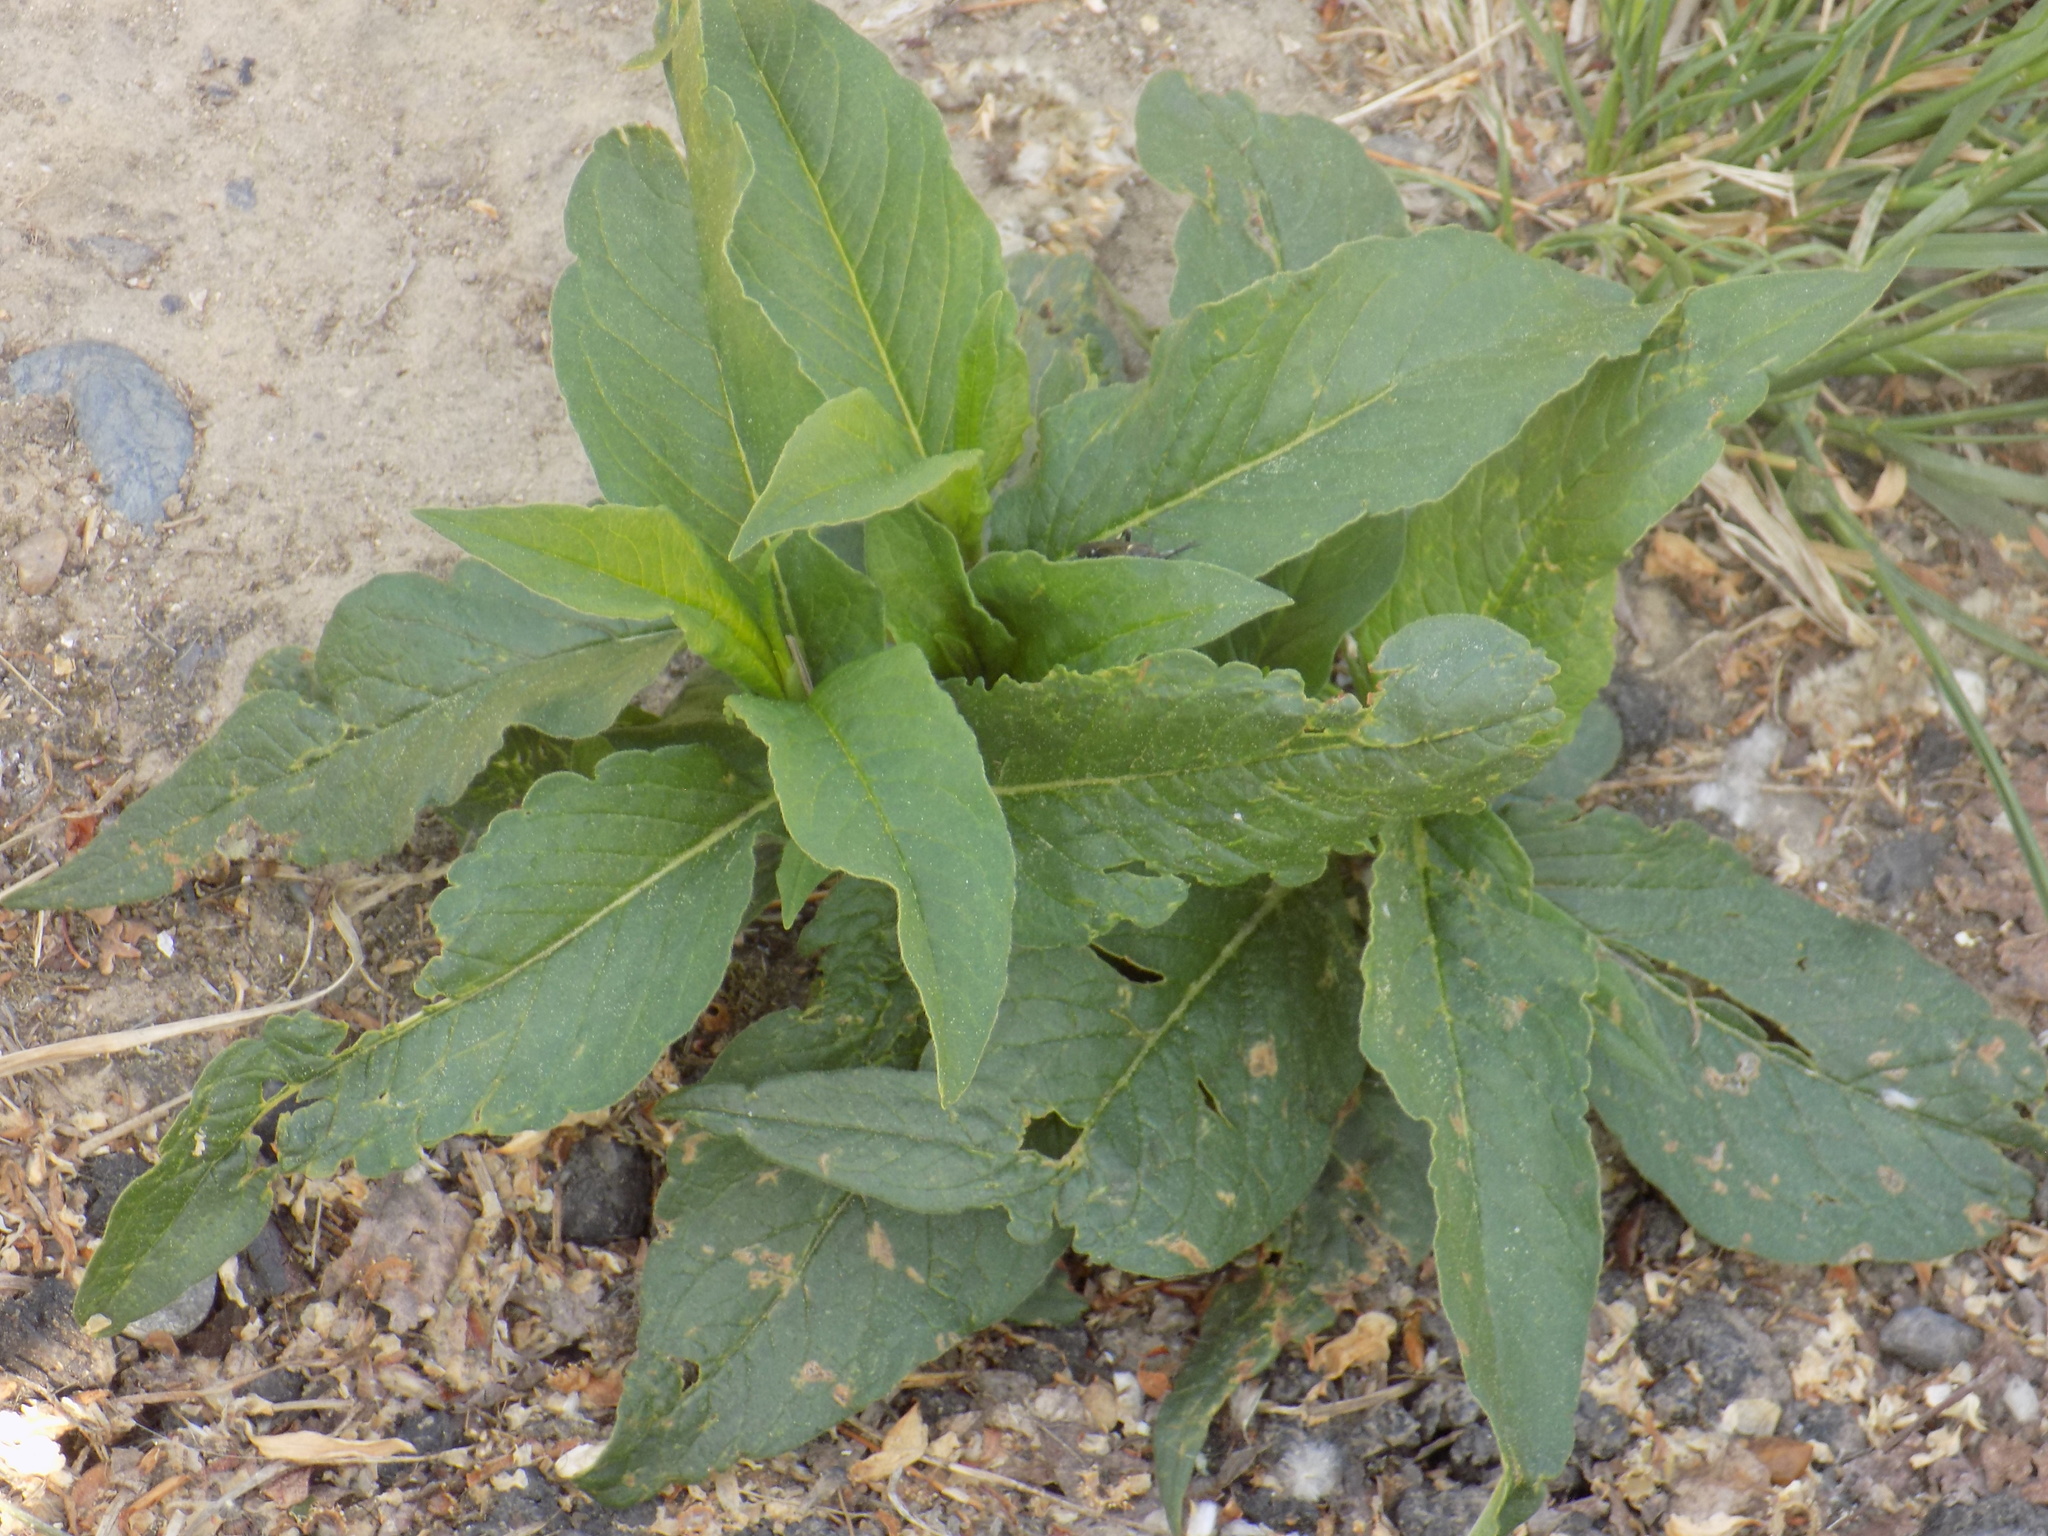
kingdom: Plantae
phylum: Tracheophyta
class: Magnoliopsida
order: Caryophyllales
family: Polygonaceae
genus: Koenigia
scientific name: Koenigia alpina
